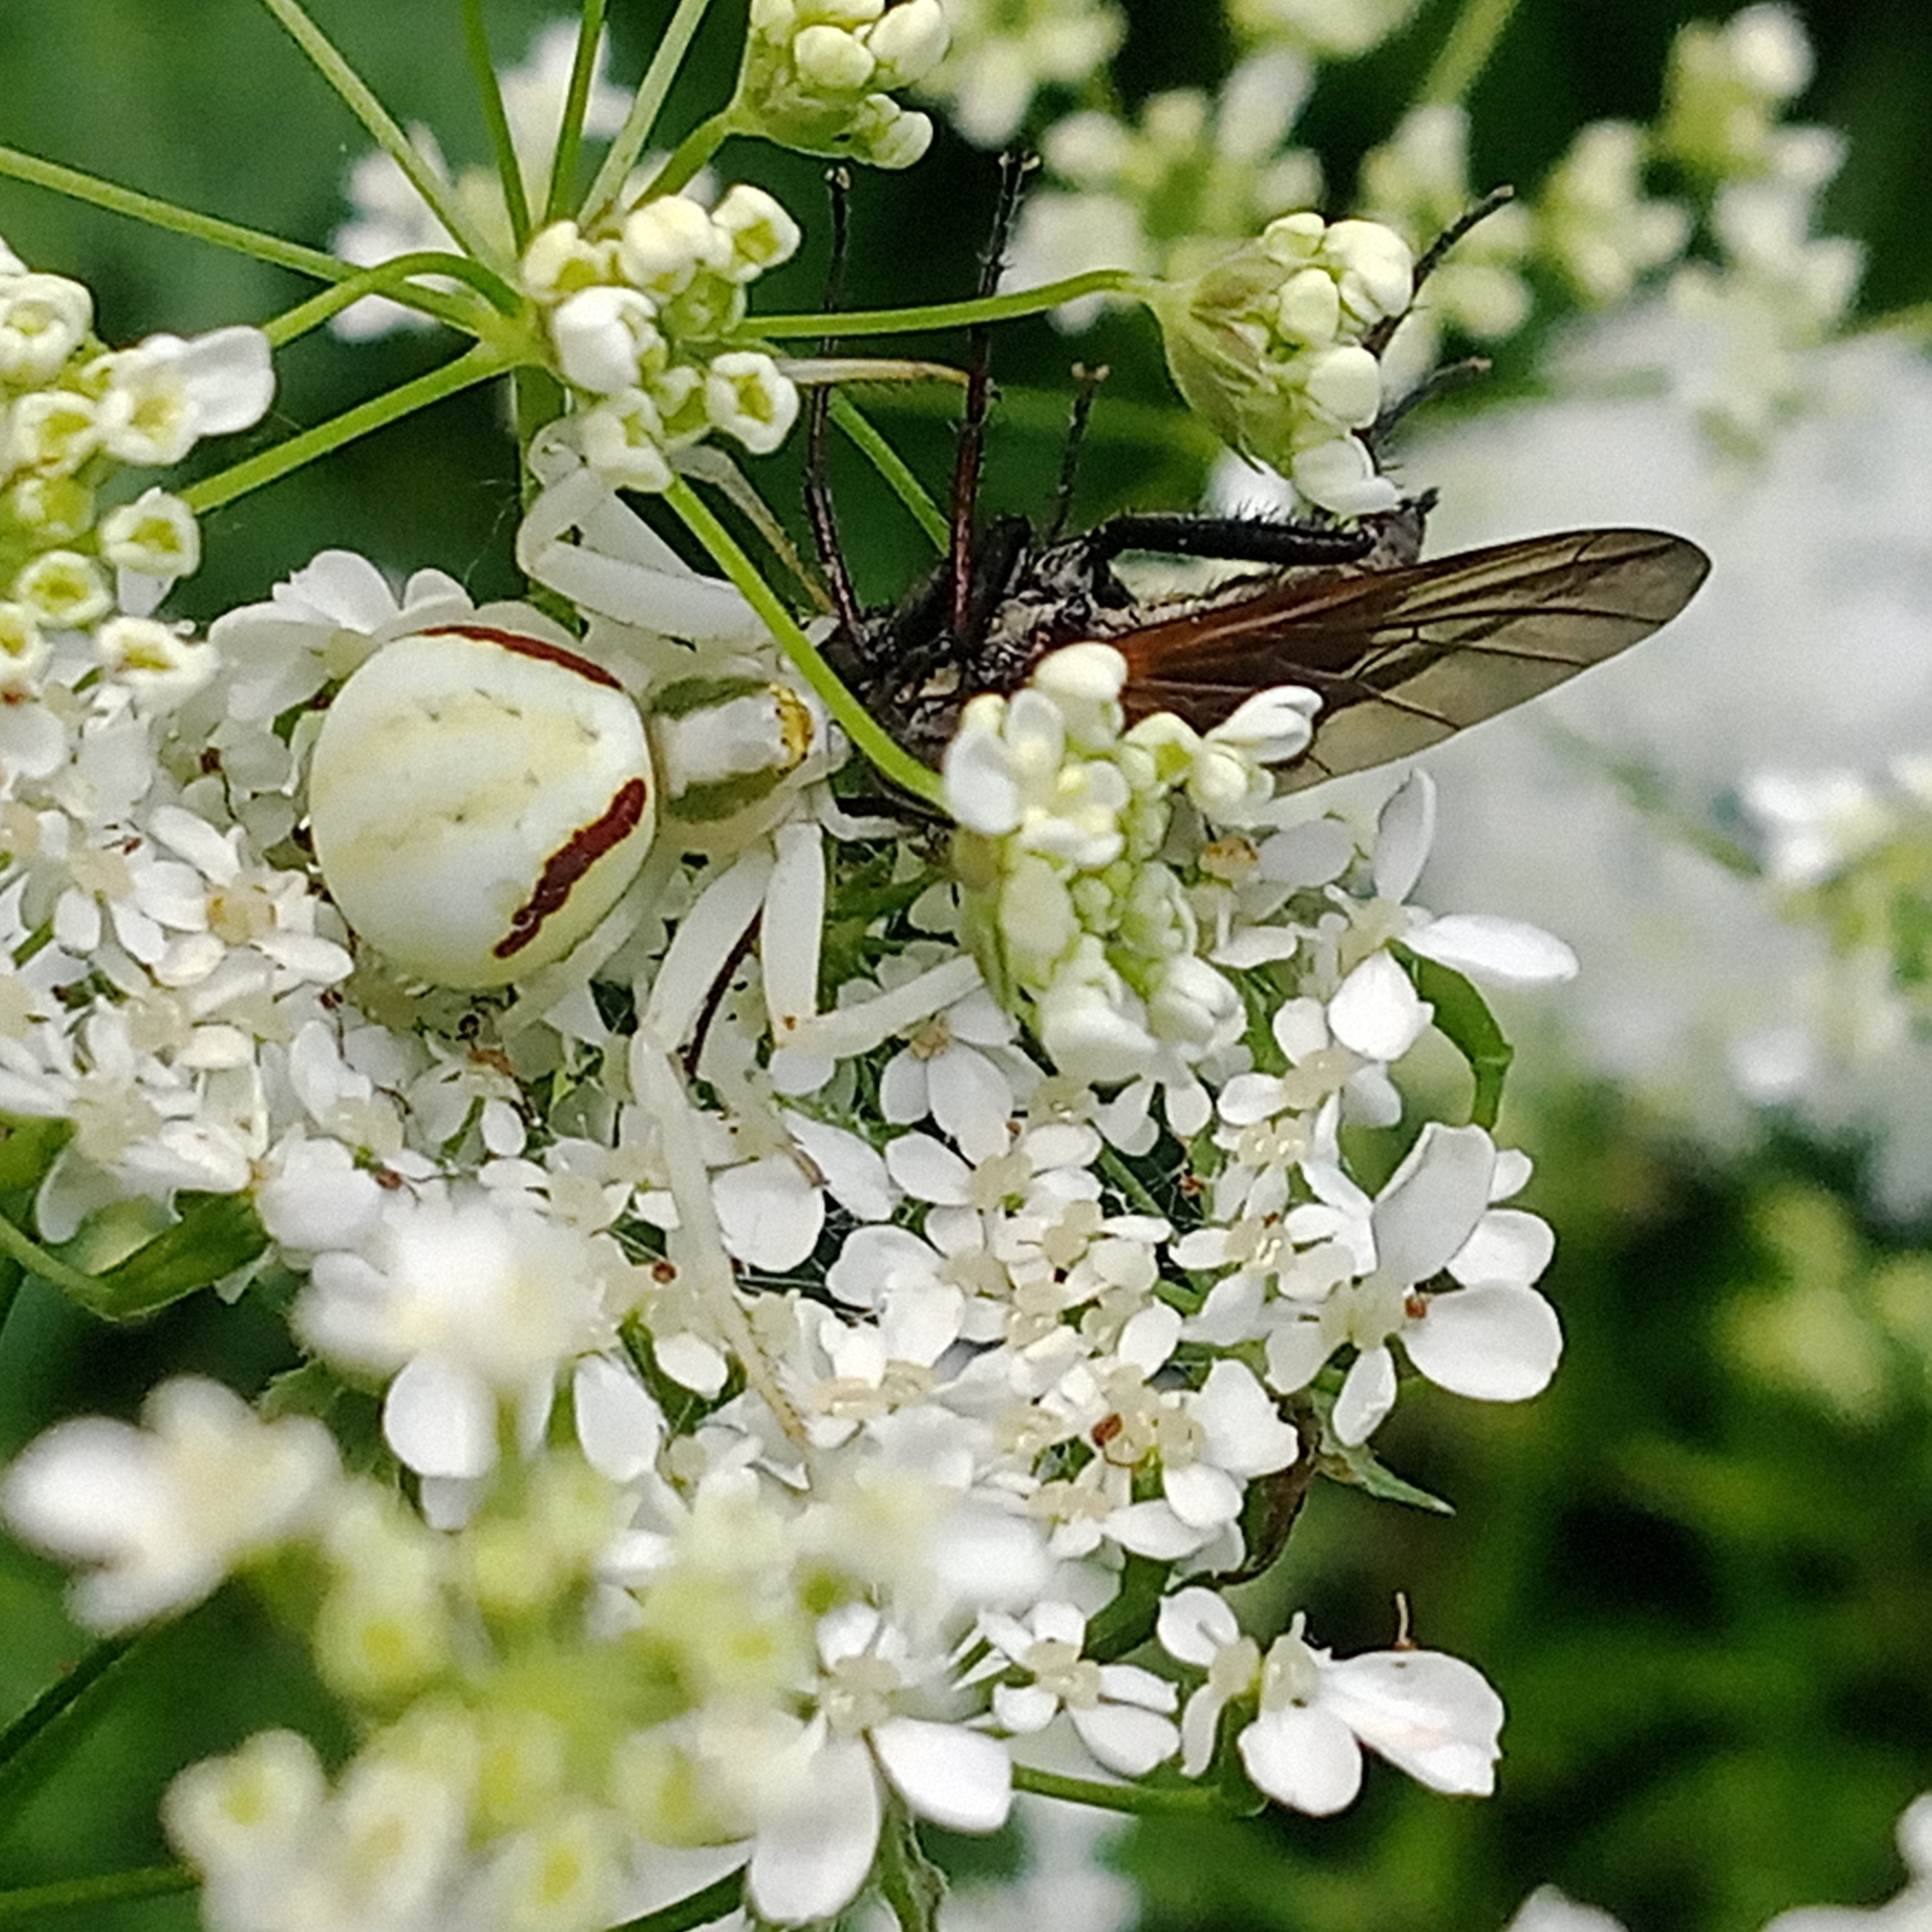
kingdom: Animalia
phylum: Arthropoda
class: Arachnida
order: Araneae
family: Thomisidae
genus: Misumena
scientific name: Misumena vatia
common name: Goldenrod crab spider
